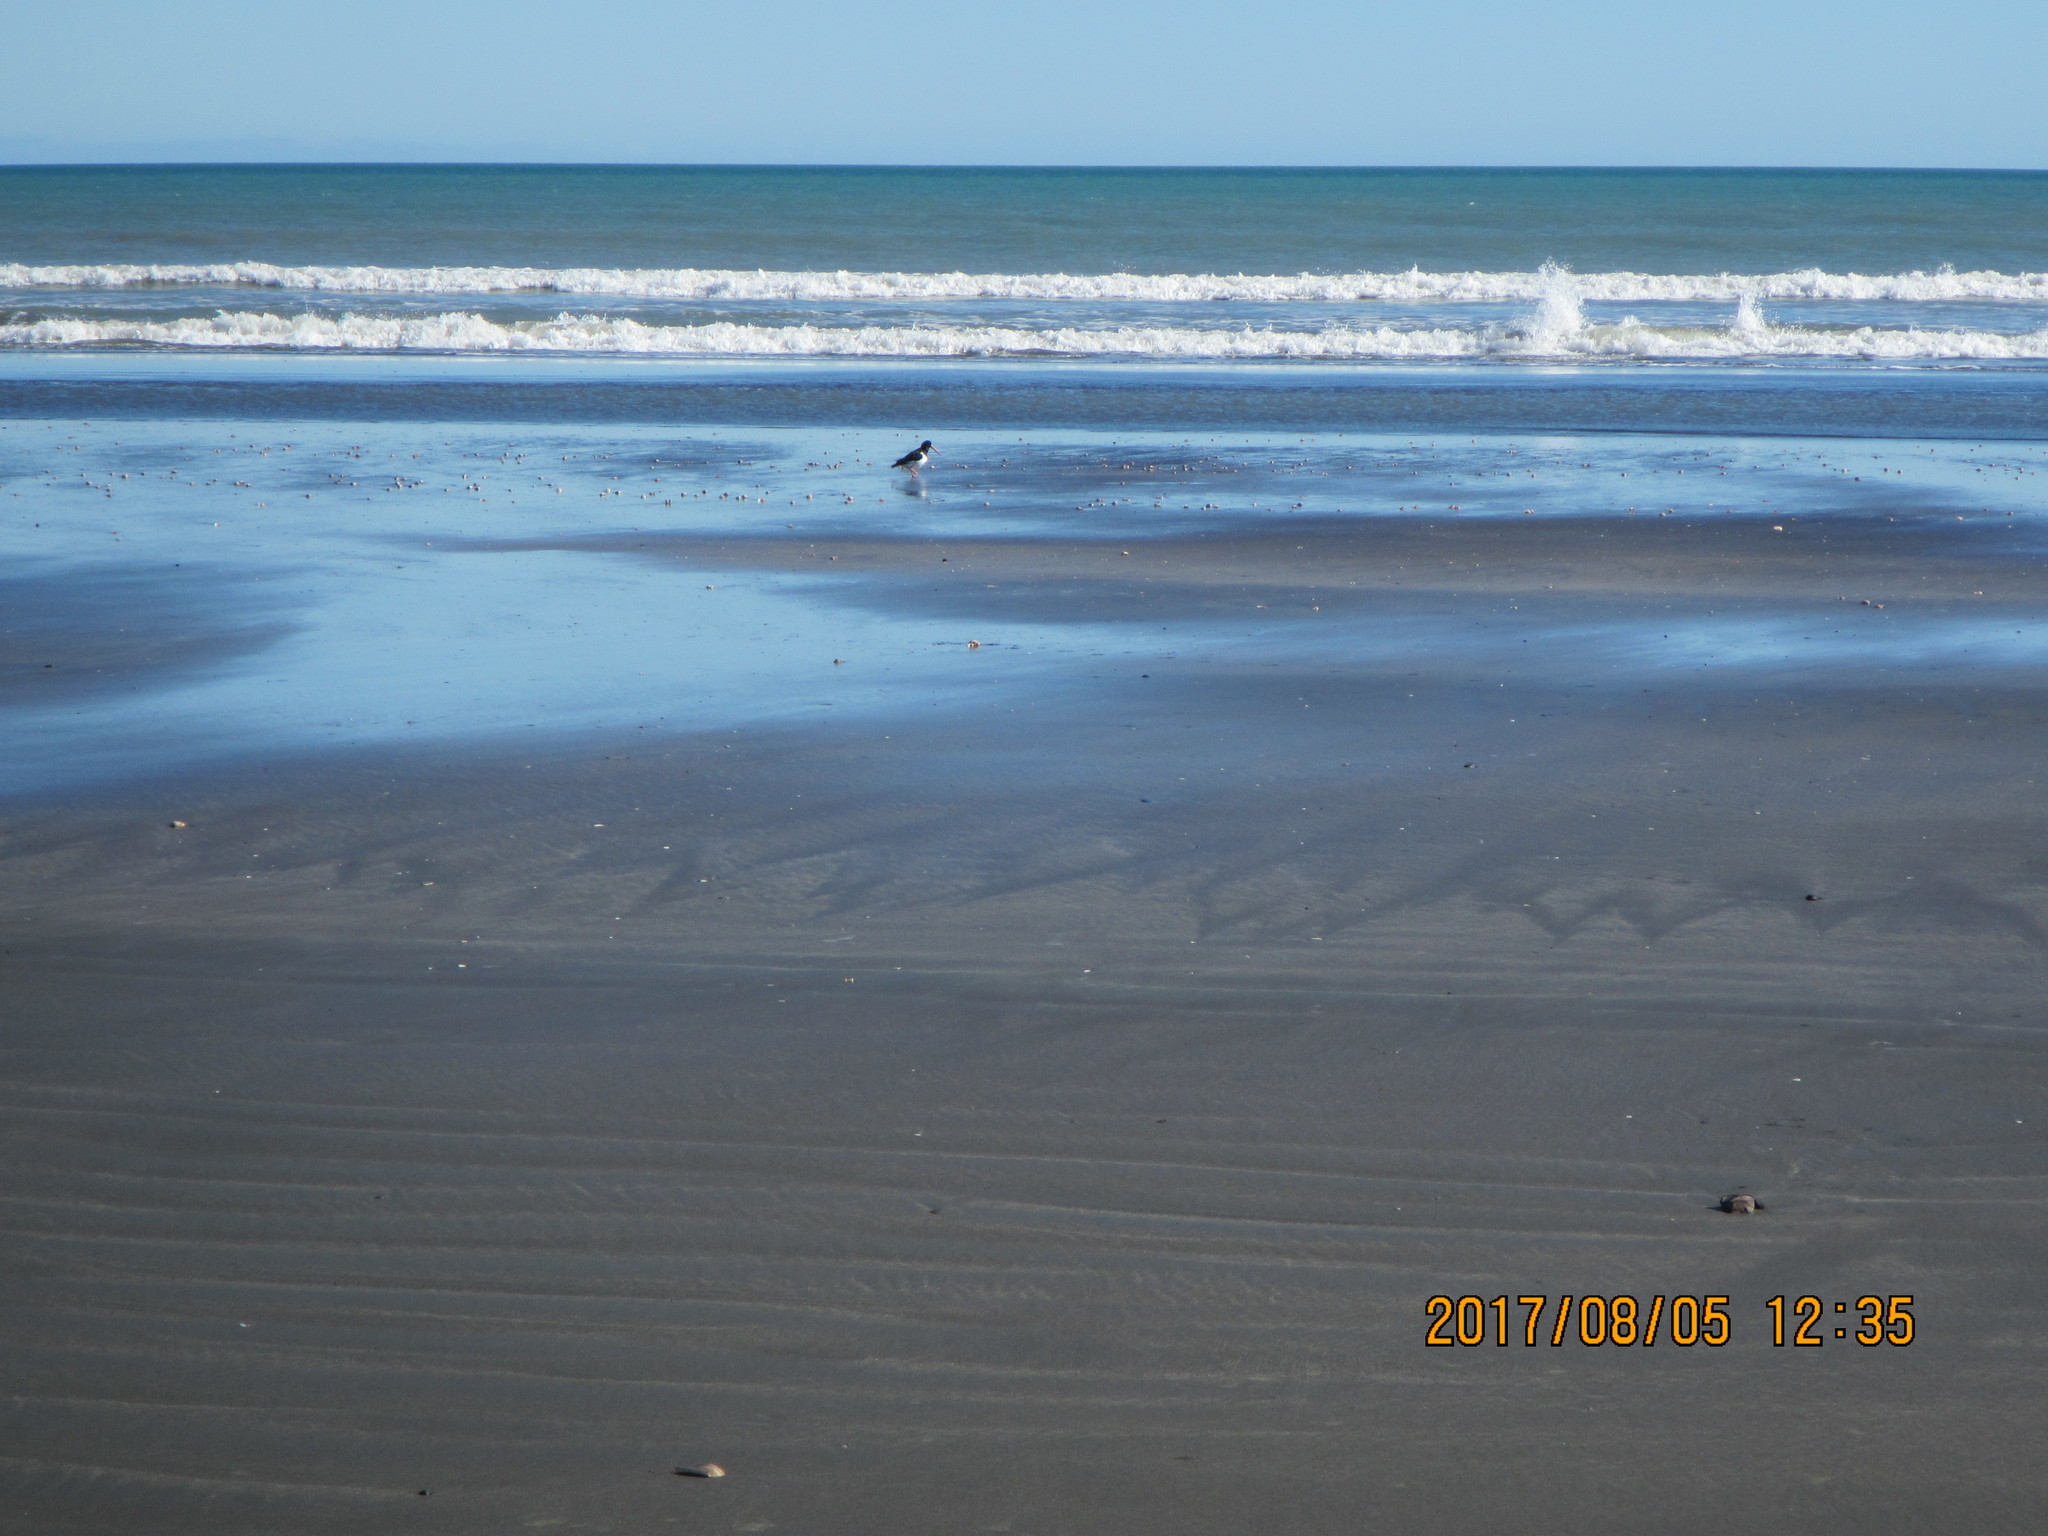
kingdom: Animalia
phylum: Chordata
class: Aves
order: Charadriiformes
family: Haematopodidae
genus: Haematopus
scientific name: Haematopus finschi
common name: South island oystercatcher
